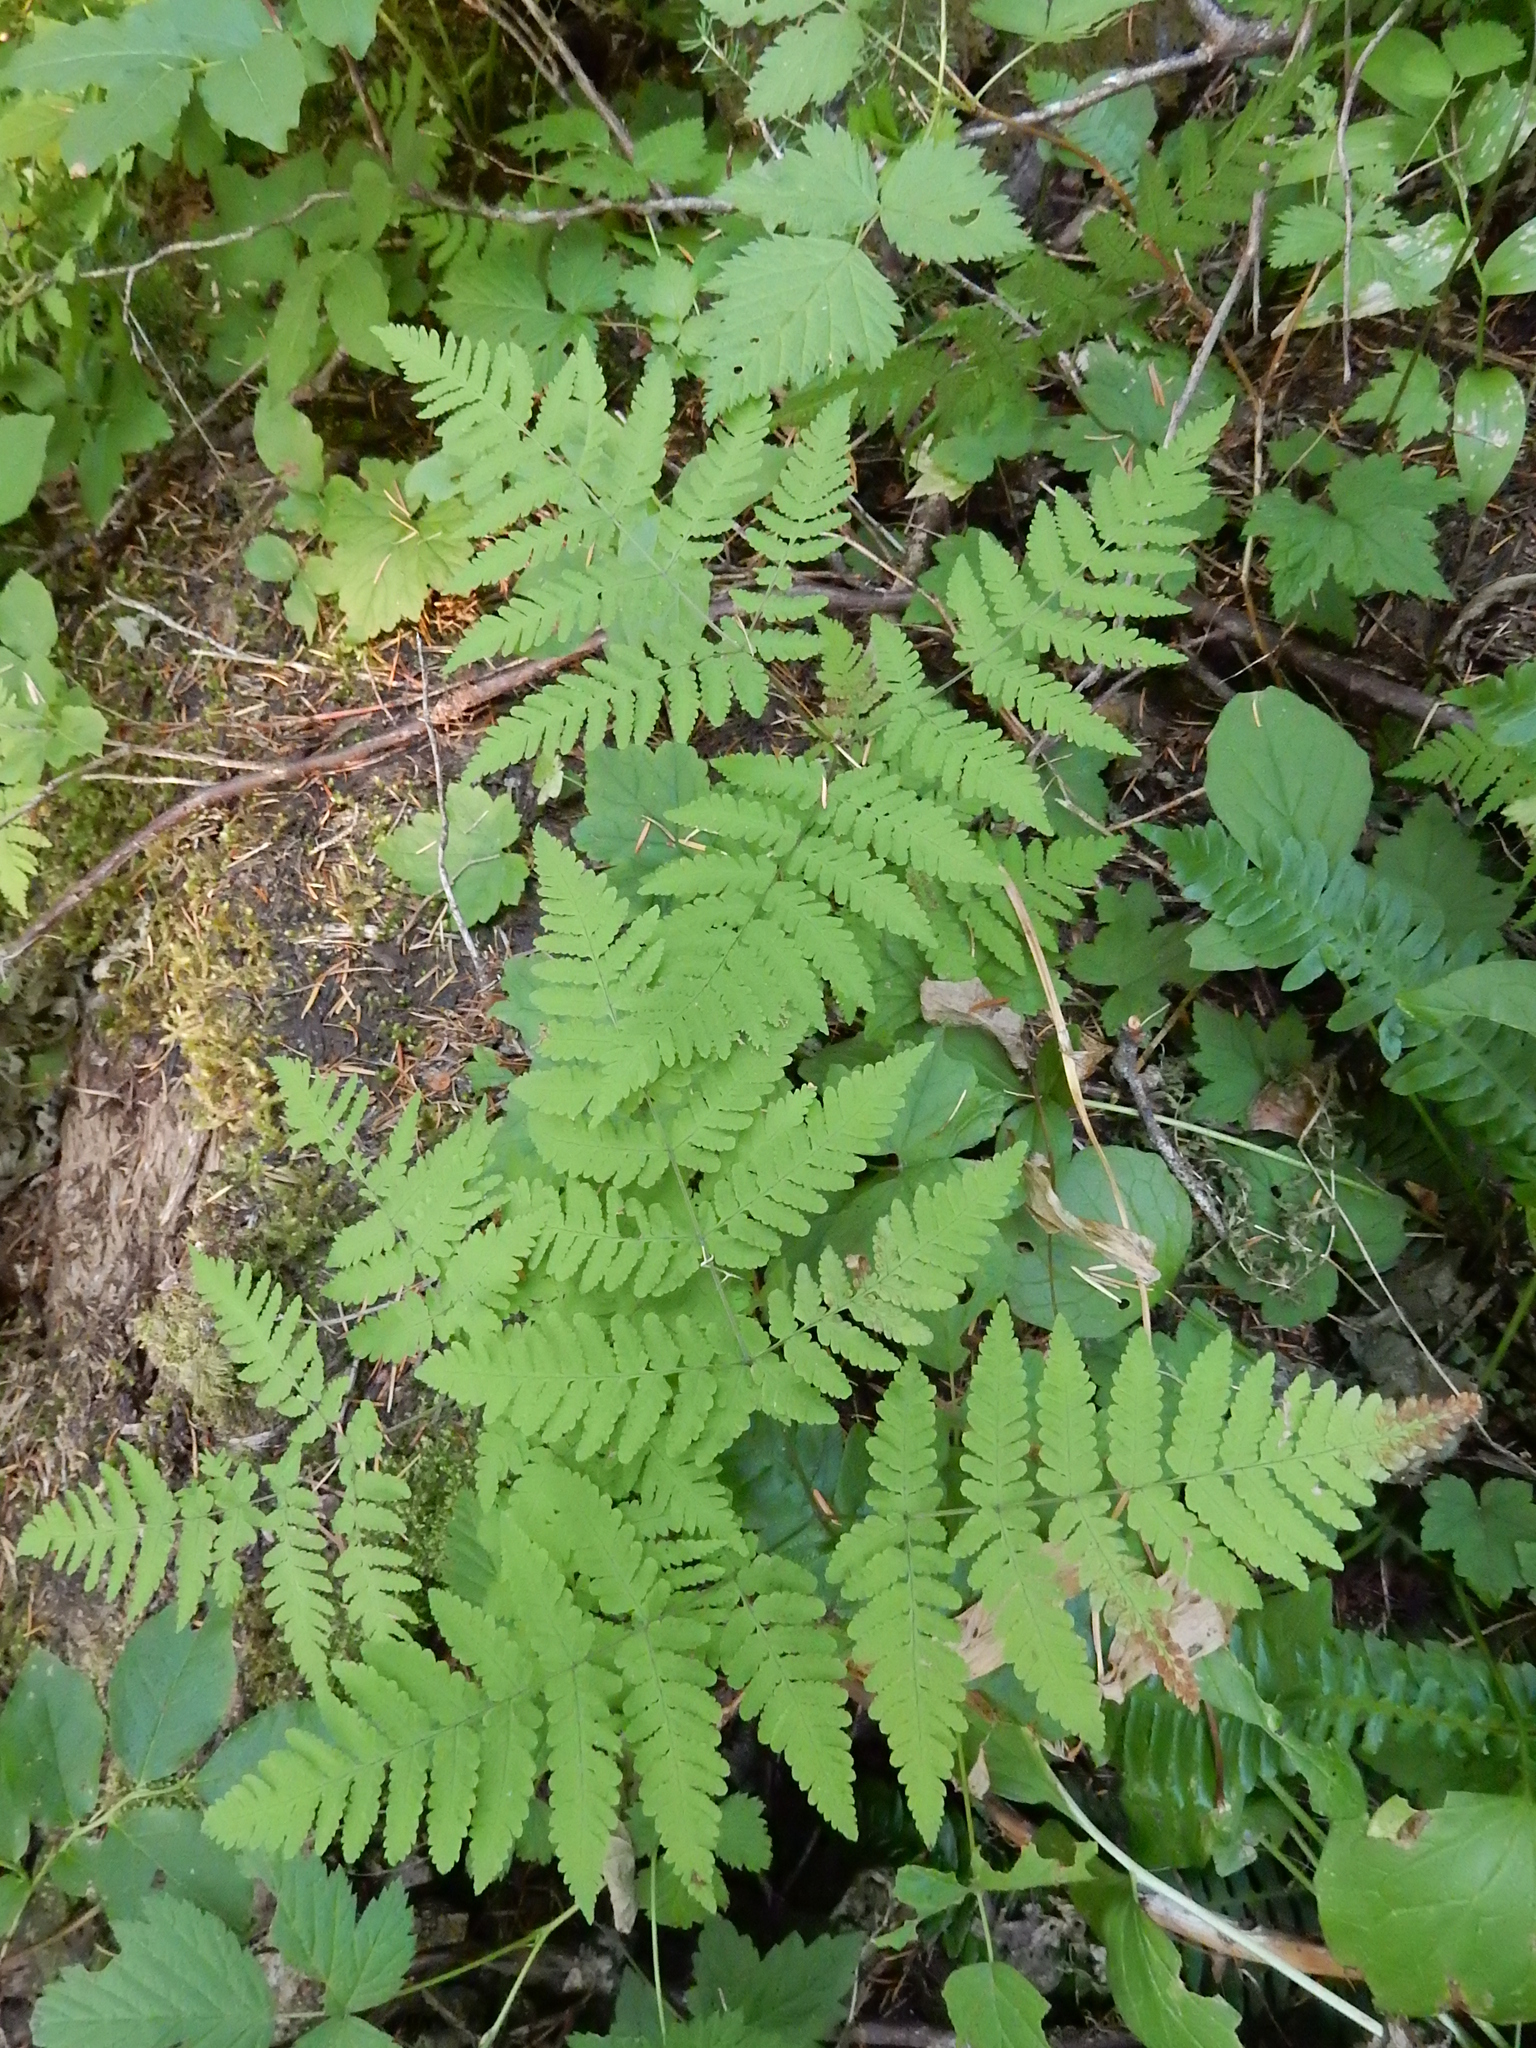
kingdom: Plantae
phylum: Tracheophyta
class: Polypodiopsida
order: Polypodiales
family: Cystopteridaceae
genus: Gymnocarpium
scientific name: Gymnocarpium disjunctum
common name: Western oak fern
